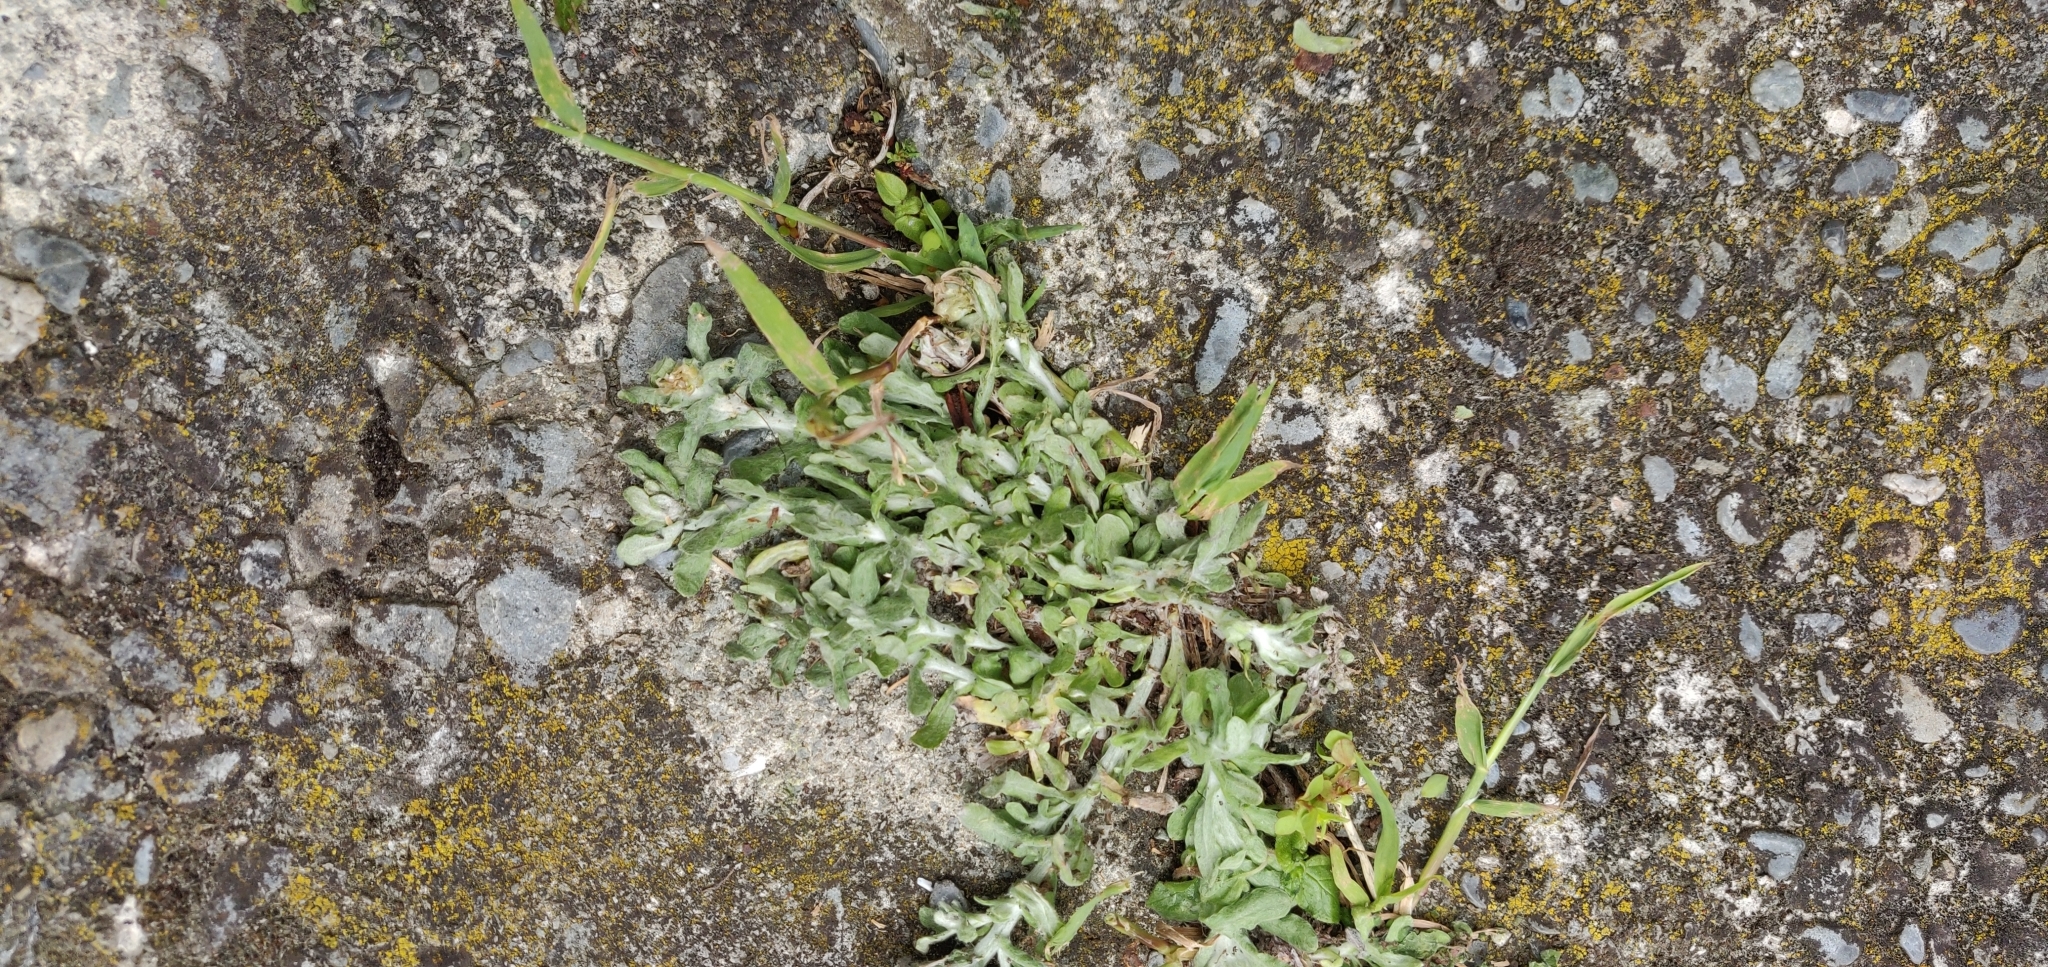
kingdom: Plantae
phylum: Tracheophyta
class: Magnoliopsida
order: Asterales
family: Asteraceae
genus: Helichrysum
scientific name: Helichrysum luteoalbum
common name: Daisy
